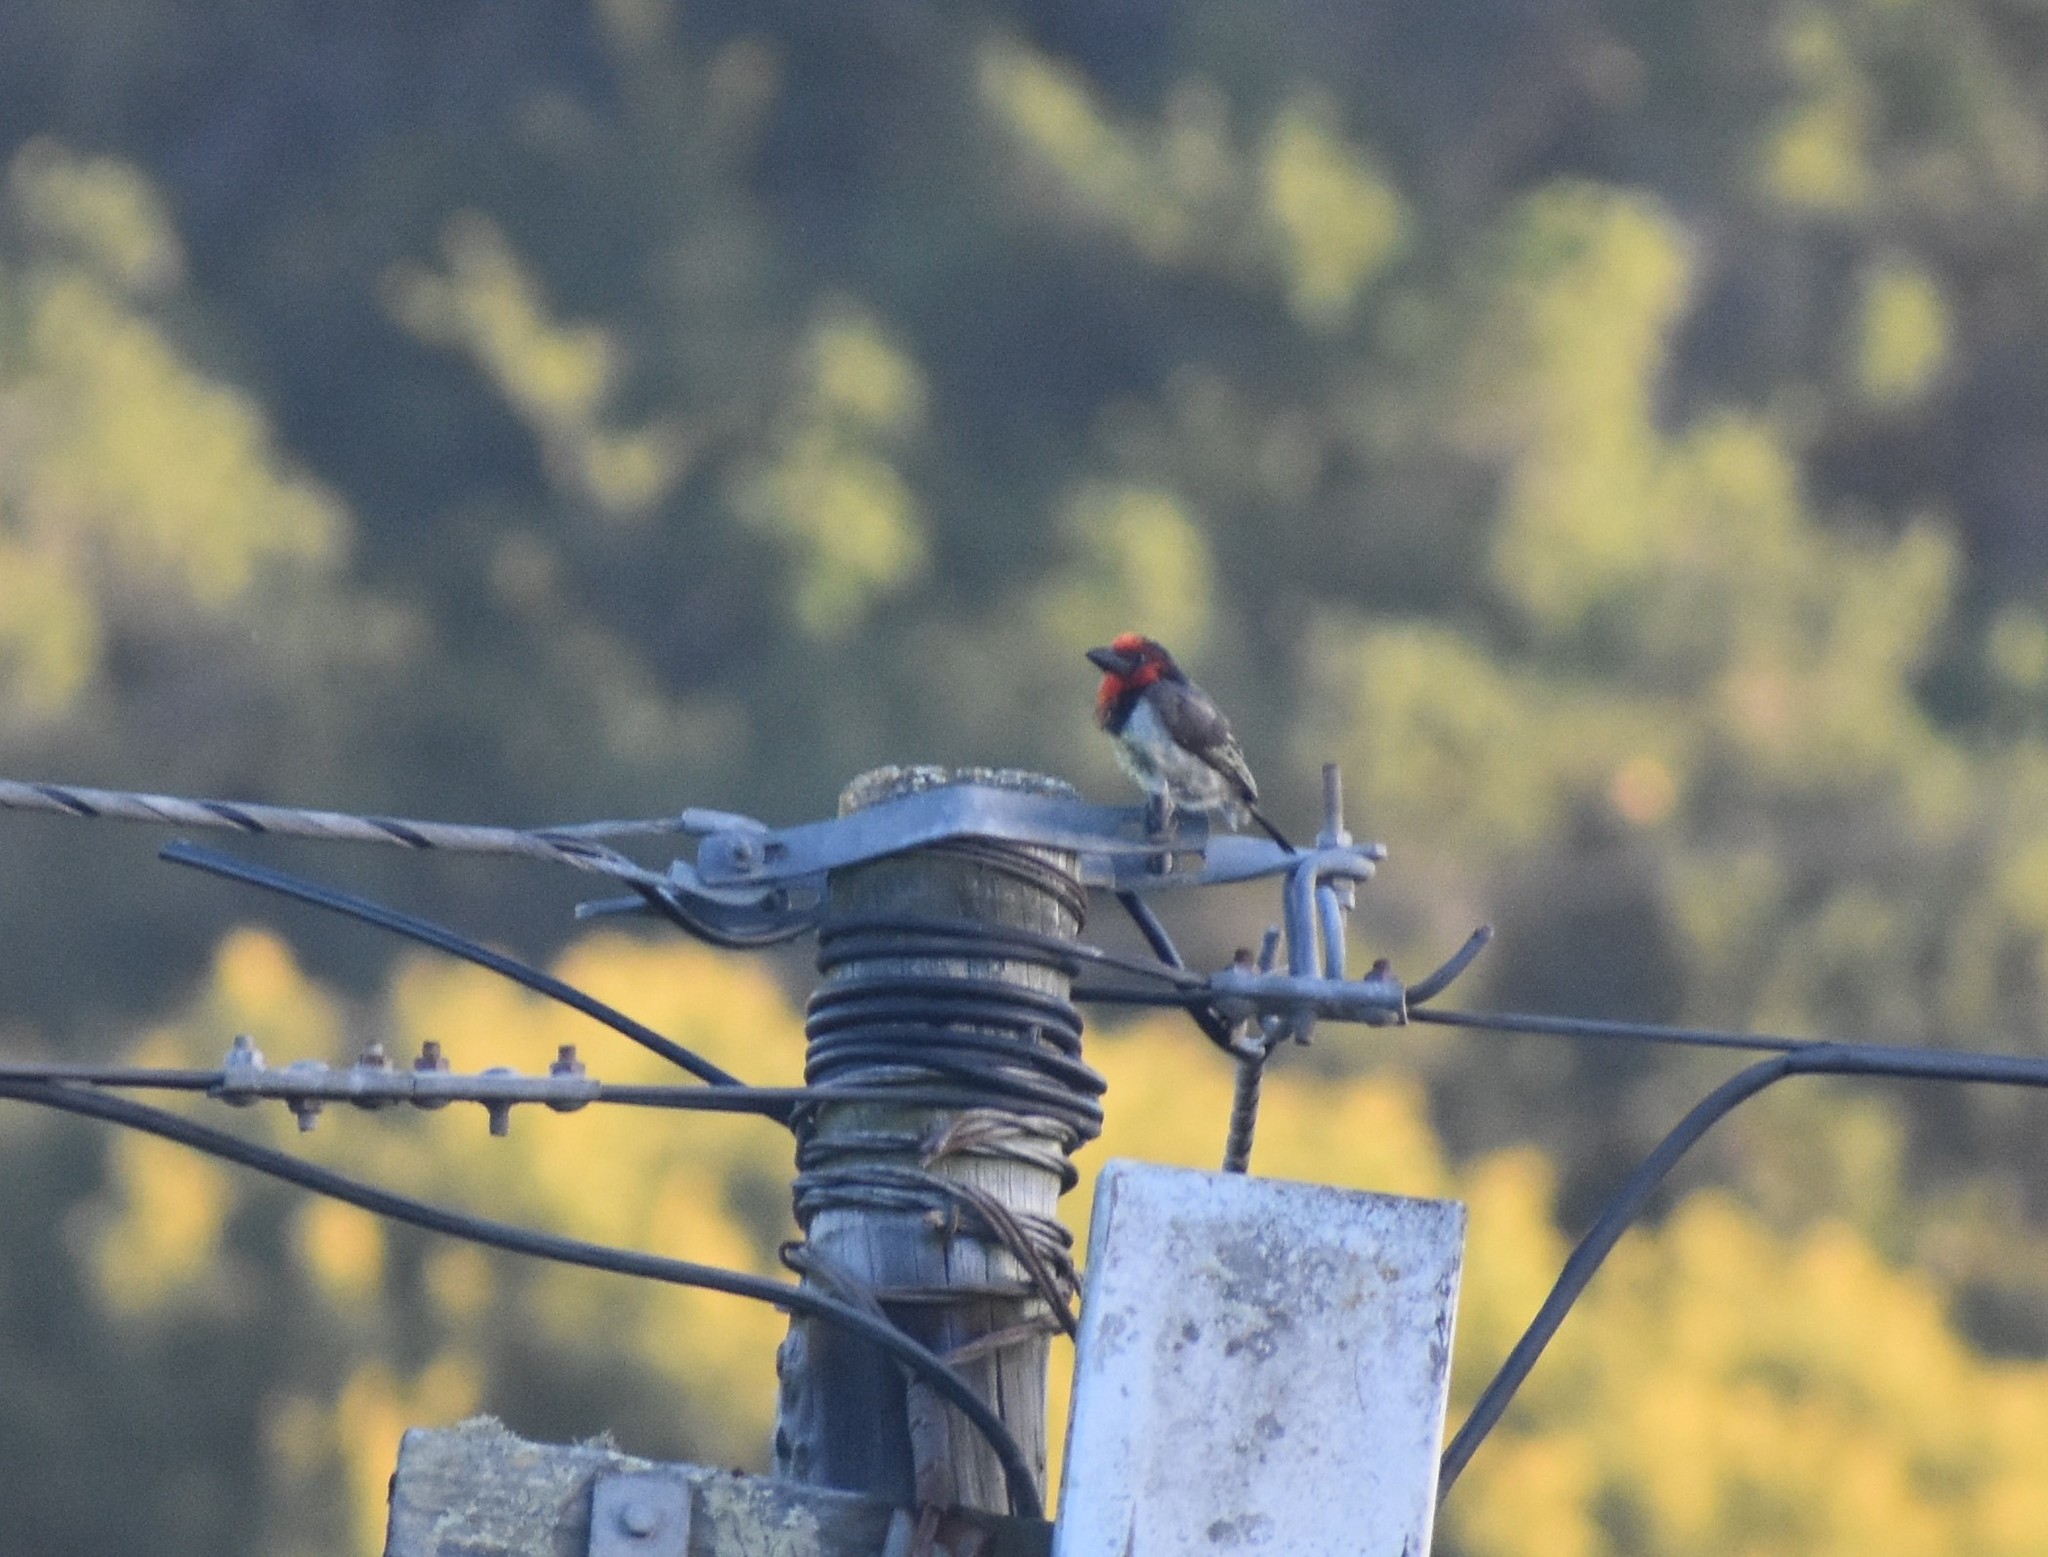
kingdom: Animalia
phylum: Chordata
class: Aves
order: Piciformes
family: Lybiidae
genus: Lybius
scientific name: Lybius torquatus
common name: Black-collared barbet
